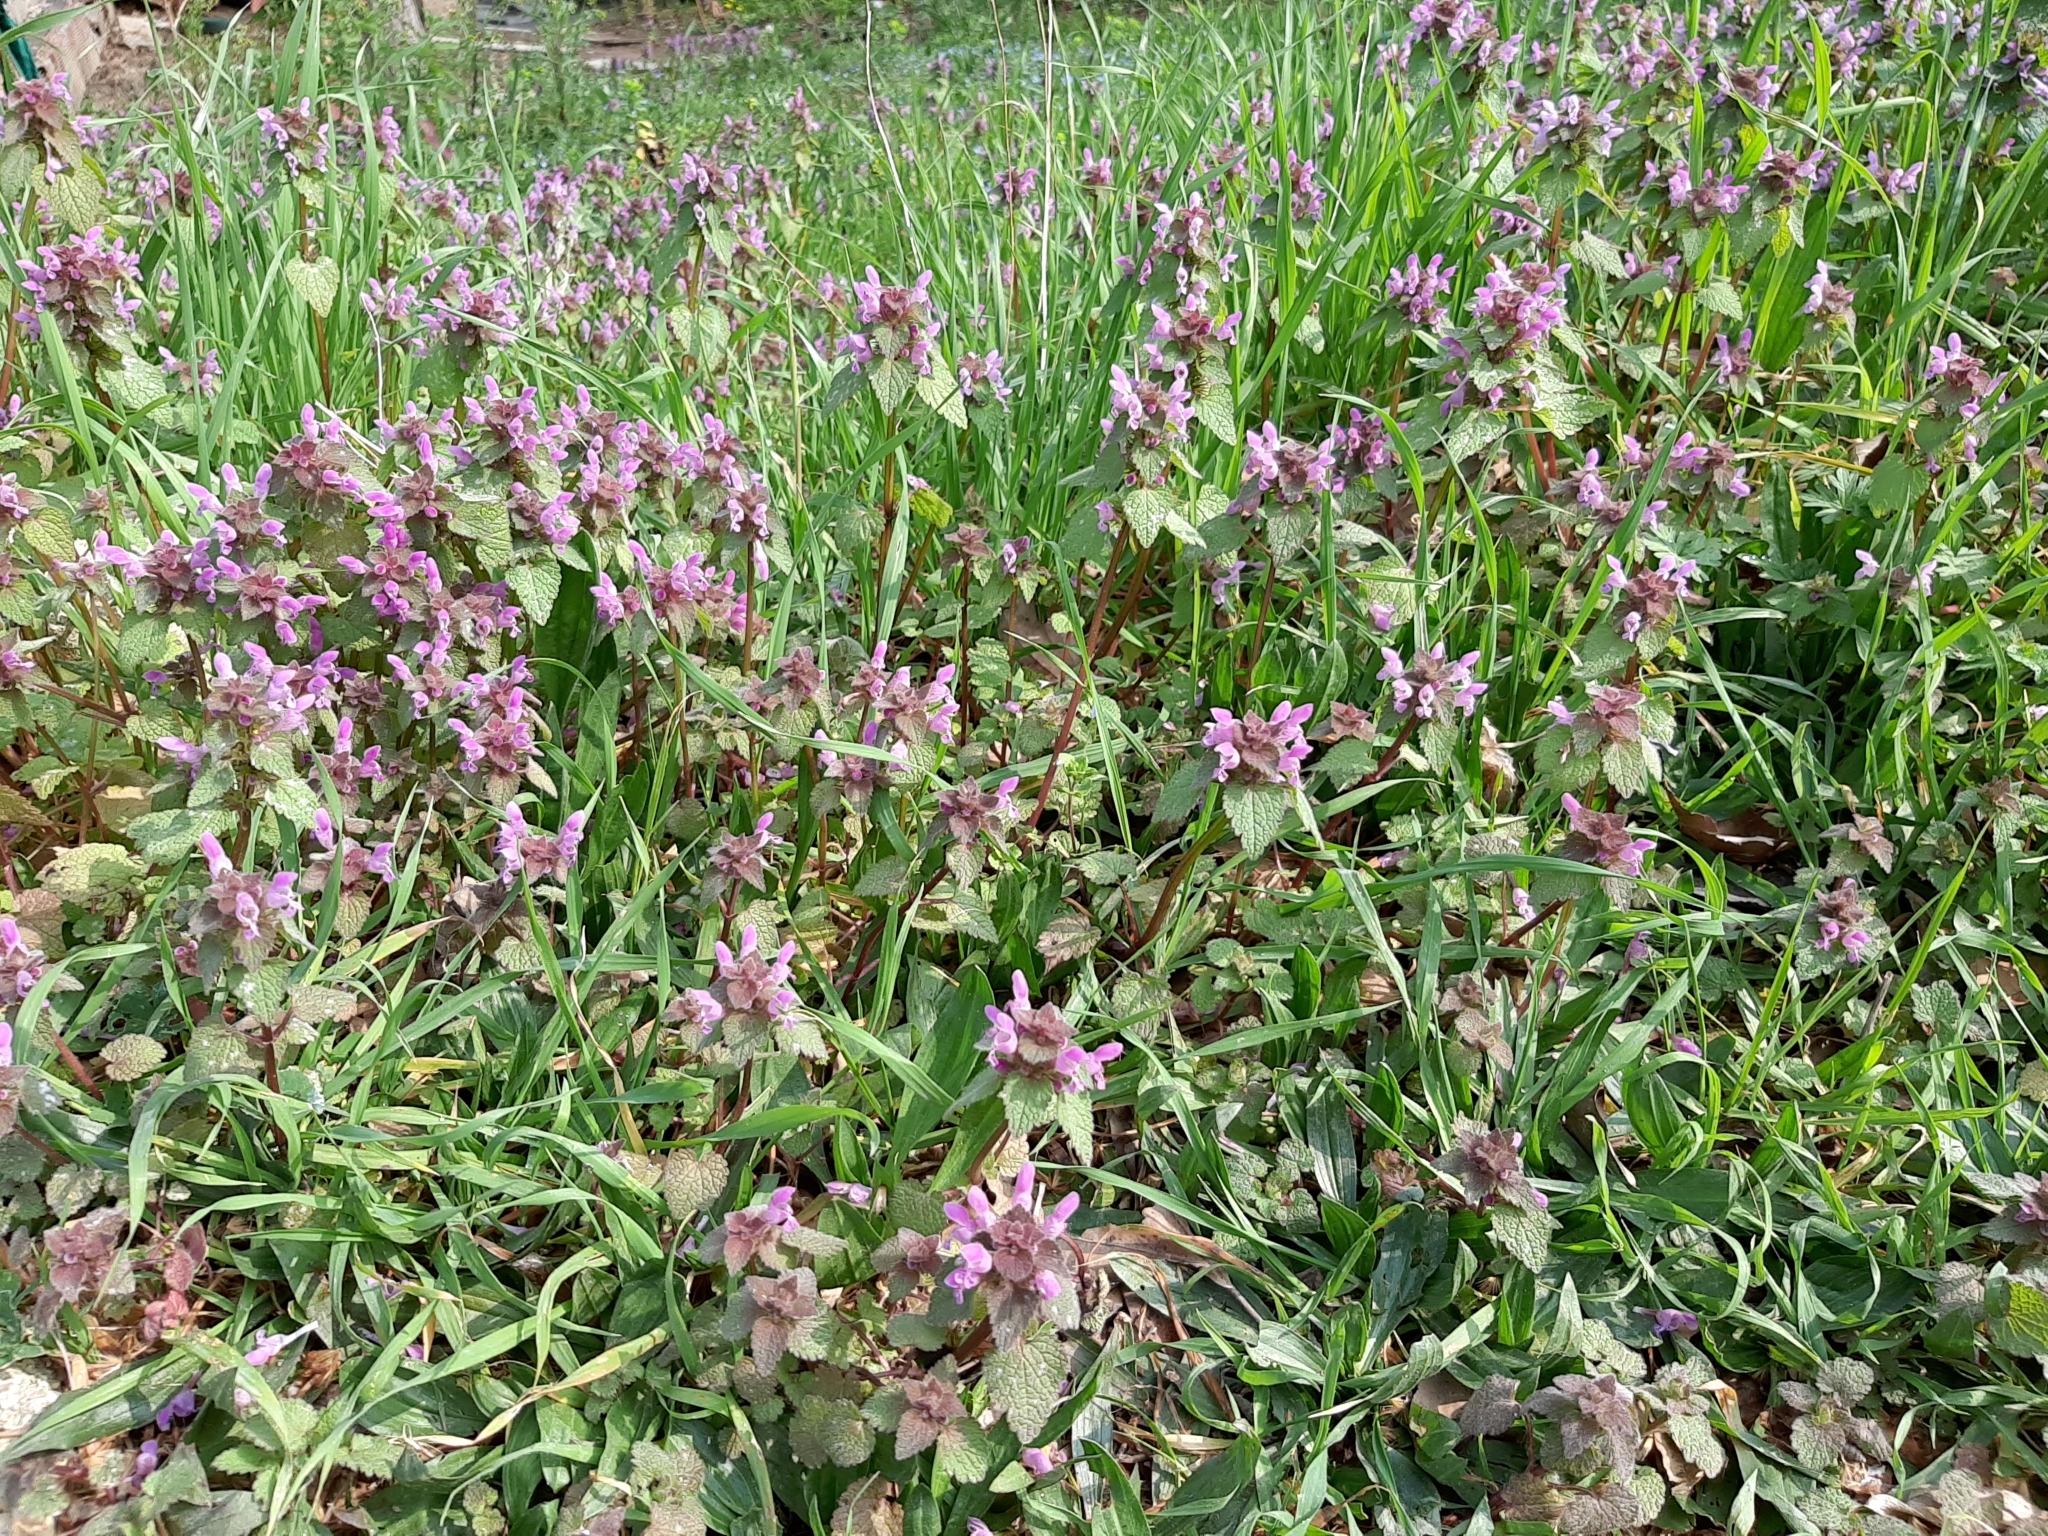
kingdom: Plantae
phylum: Tracheophyta
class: Magnoliopsida
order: Lamiales
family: Lamiaceae
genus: Lamium
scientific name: Lamium purpureum
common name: Red dead-nettle
